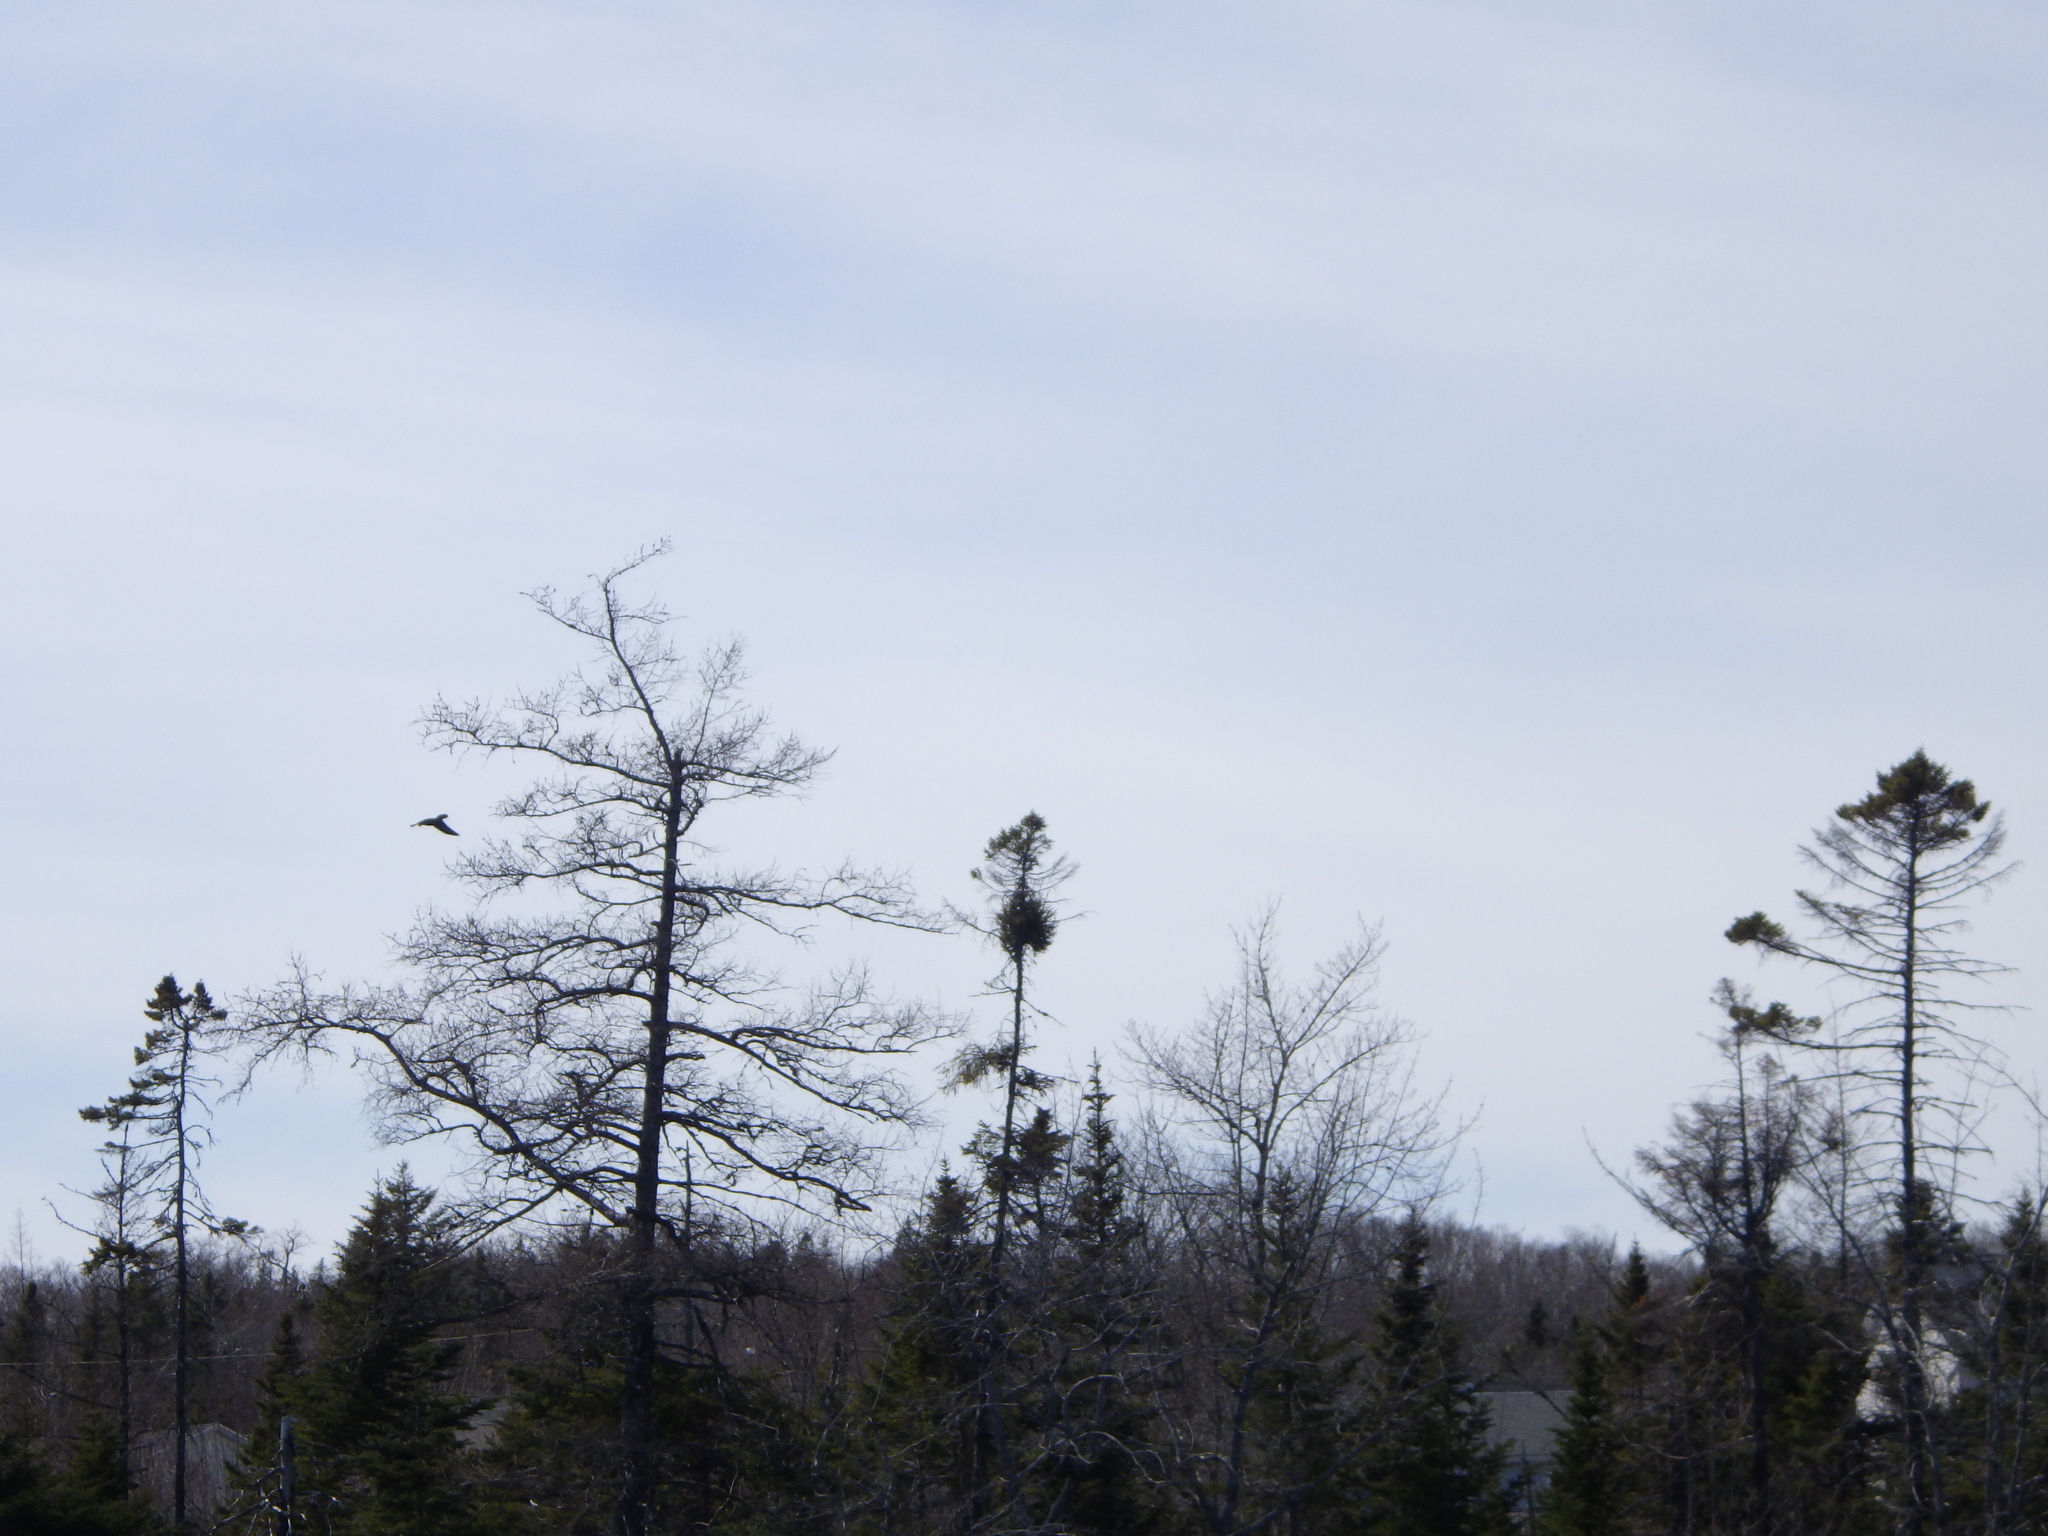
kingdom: Animalia
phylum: Chordata
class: Aves
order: Passeriformes
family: Corvidae
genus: Corvus
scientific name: Corvus corax
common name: Common raven
